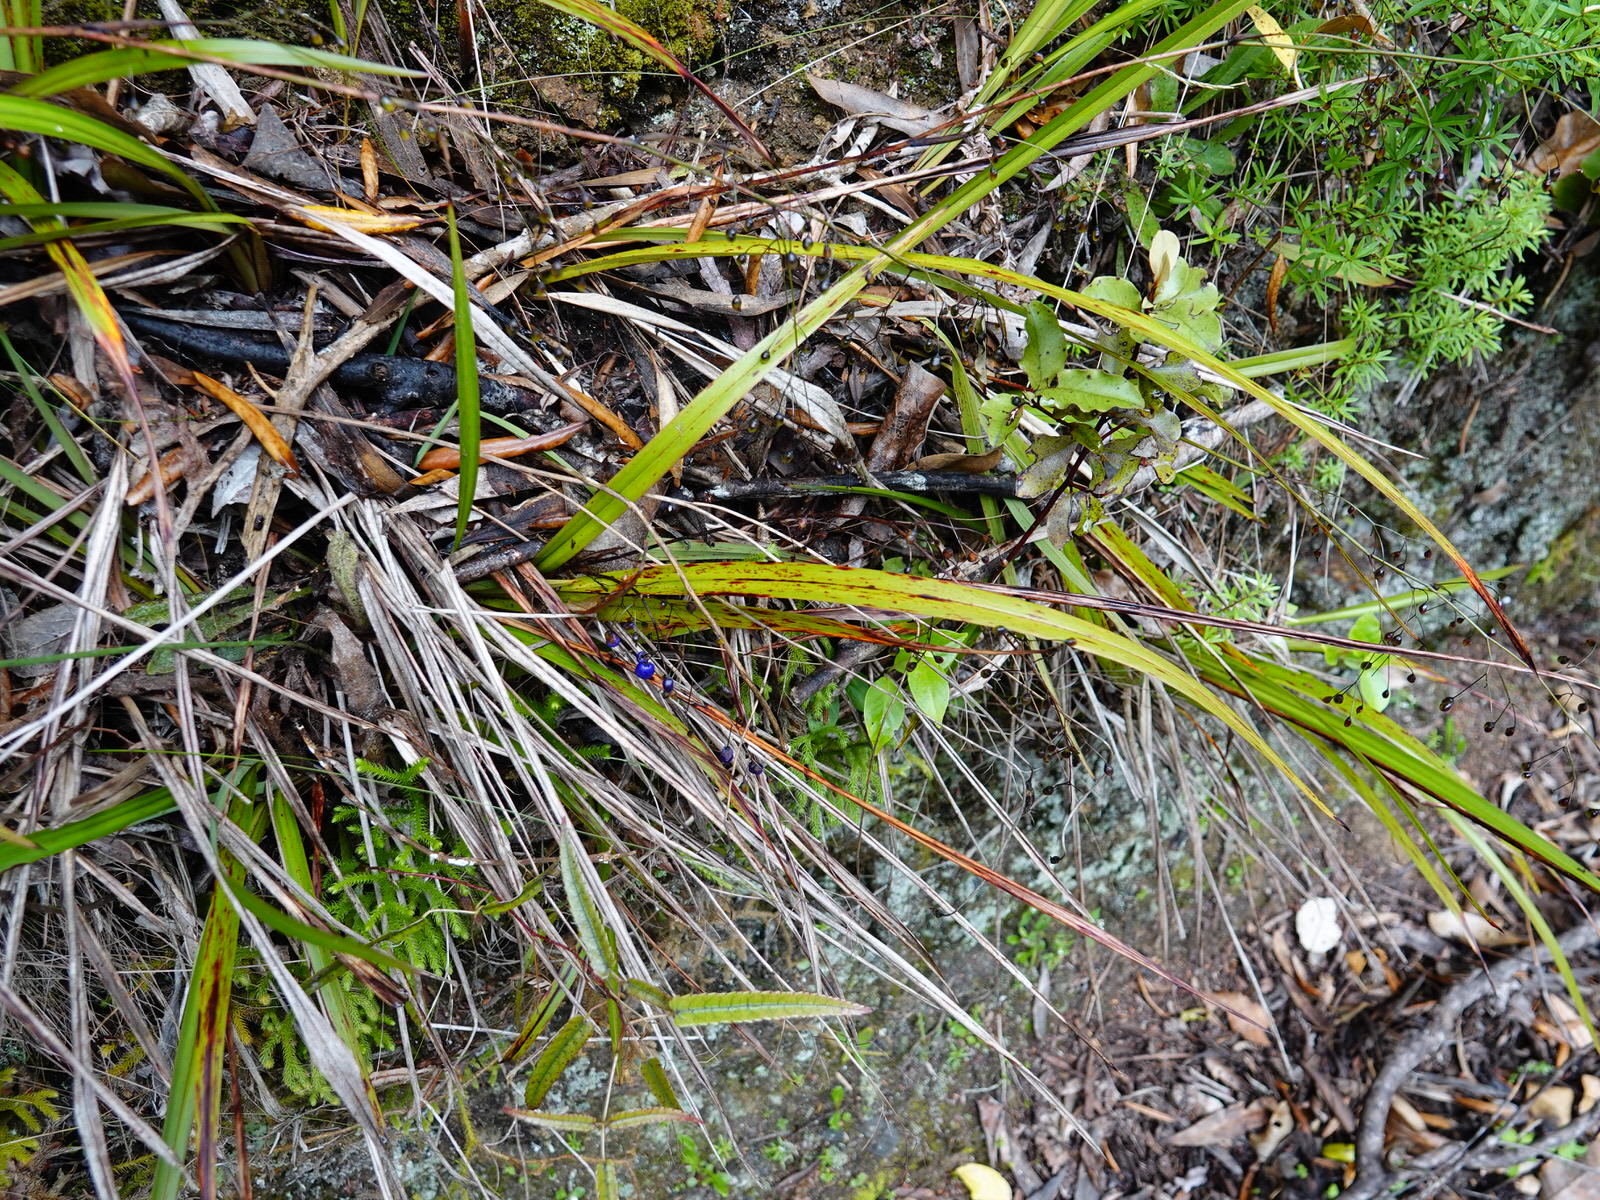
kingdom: Plantae
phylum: Tracheophyta
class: Liliopsida
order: Asparagales
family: Asphodelaceae
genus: Dianella
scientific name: Dianella nigra
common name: New zealand-blueberry
